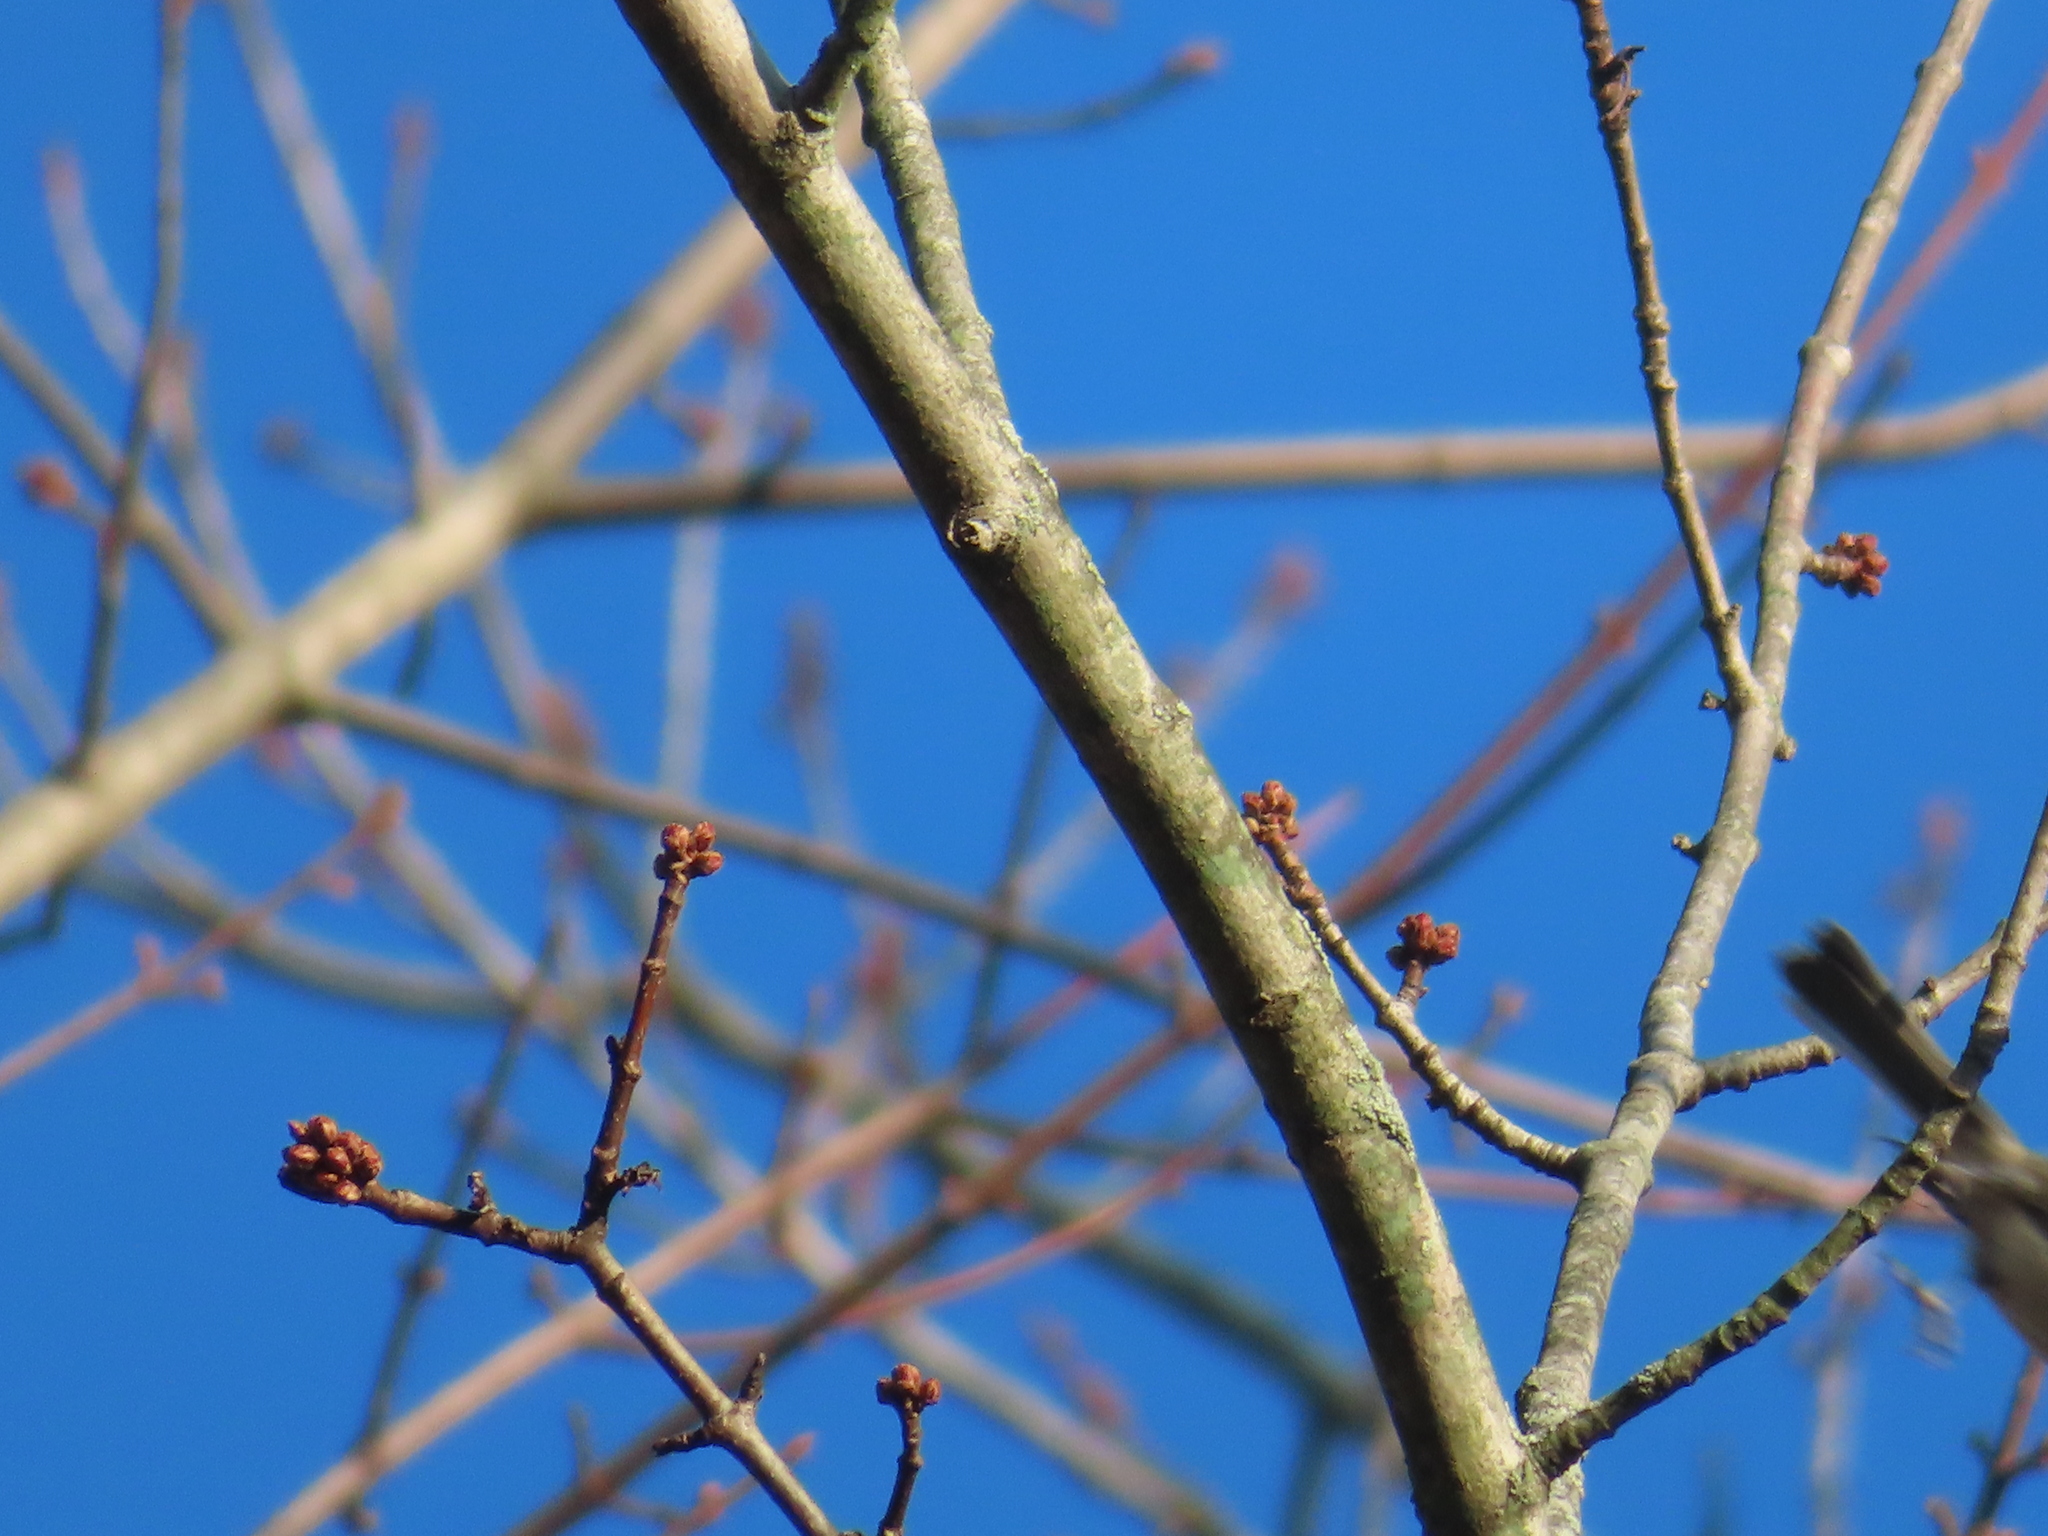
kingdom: Animalia
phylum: Chordata
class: Aves
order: Passeriformes
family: Paridae
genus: Poecile
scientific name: Poecile carolinensis
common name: Carolina chickadee
